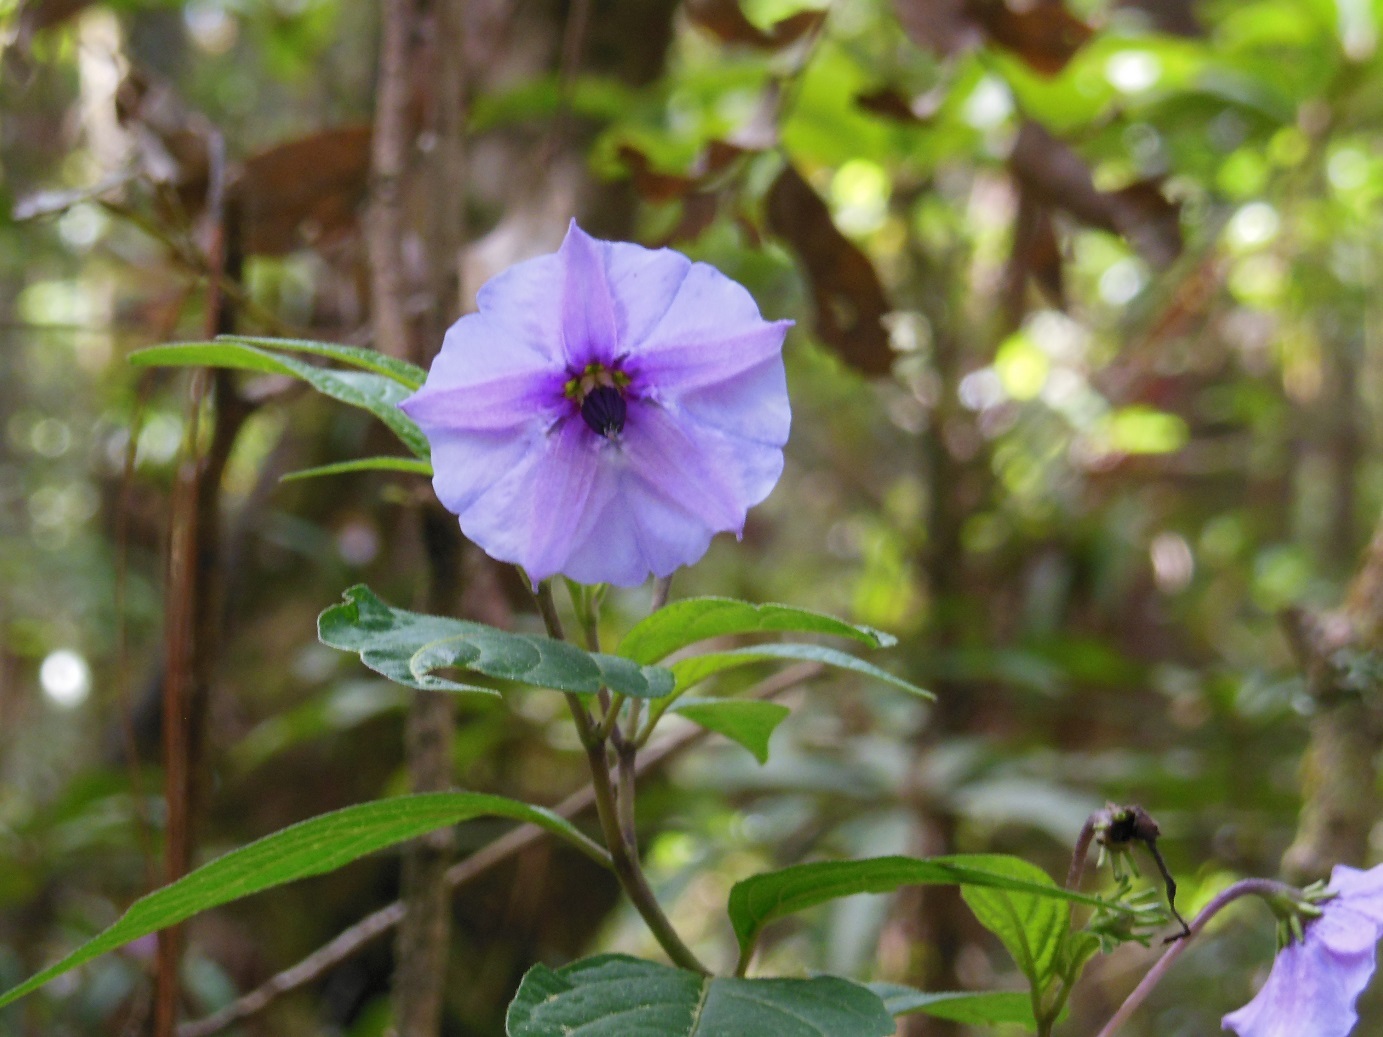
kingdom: Plantae
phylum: Tracheophyta
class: Magnoliopsida
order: Solanales
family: Solanaceae
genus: Lycianthes
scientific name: Lycianthes quichensis
